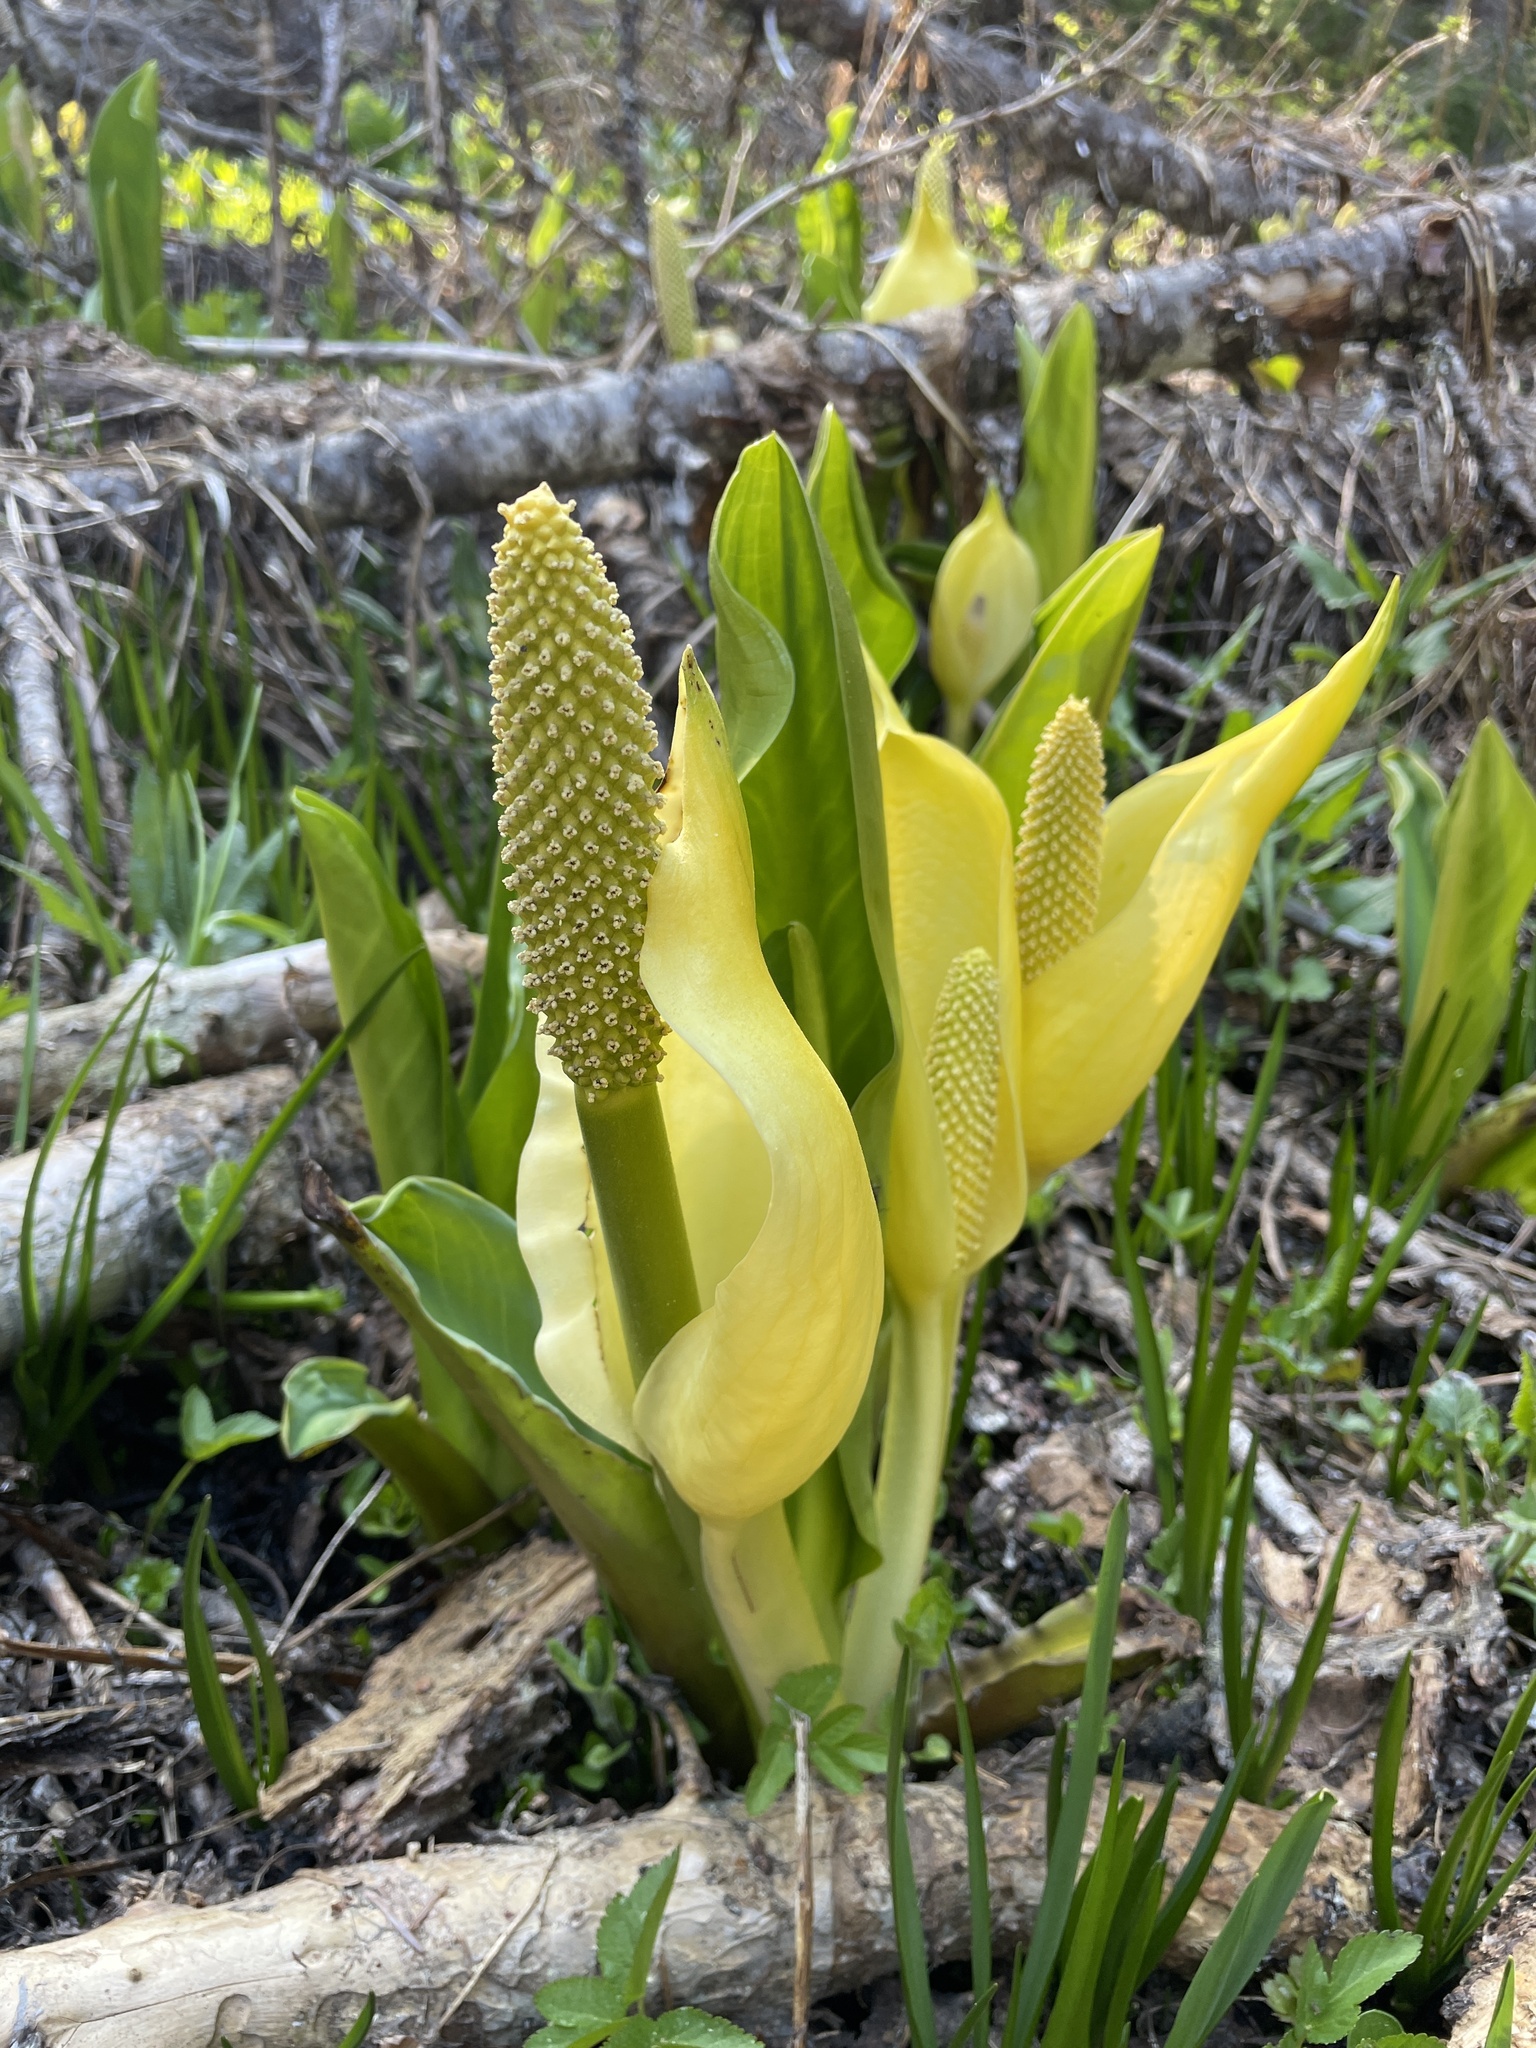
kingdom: Plantae
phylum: Tracheophyta
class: Liliopsida
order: Alismatales
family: Araceae
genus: Lysichiton
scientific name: Lysichiton americanus
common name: American skunk cabbage
